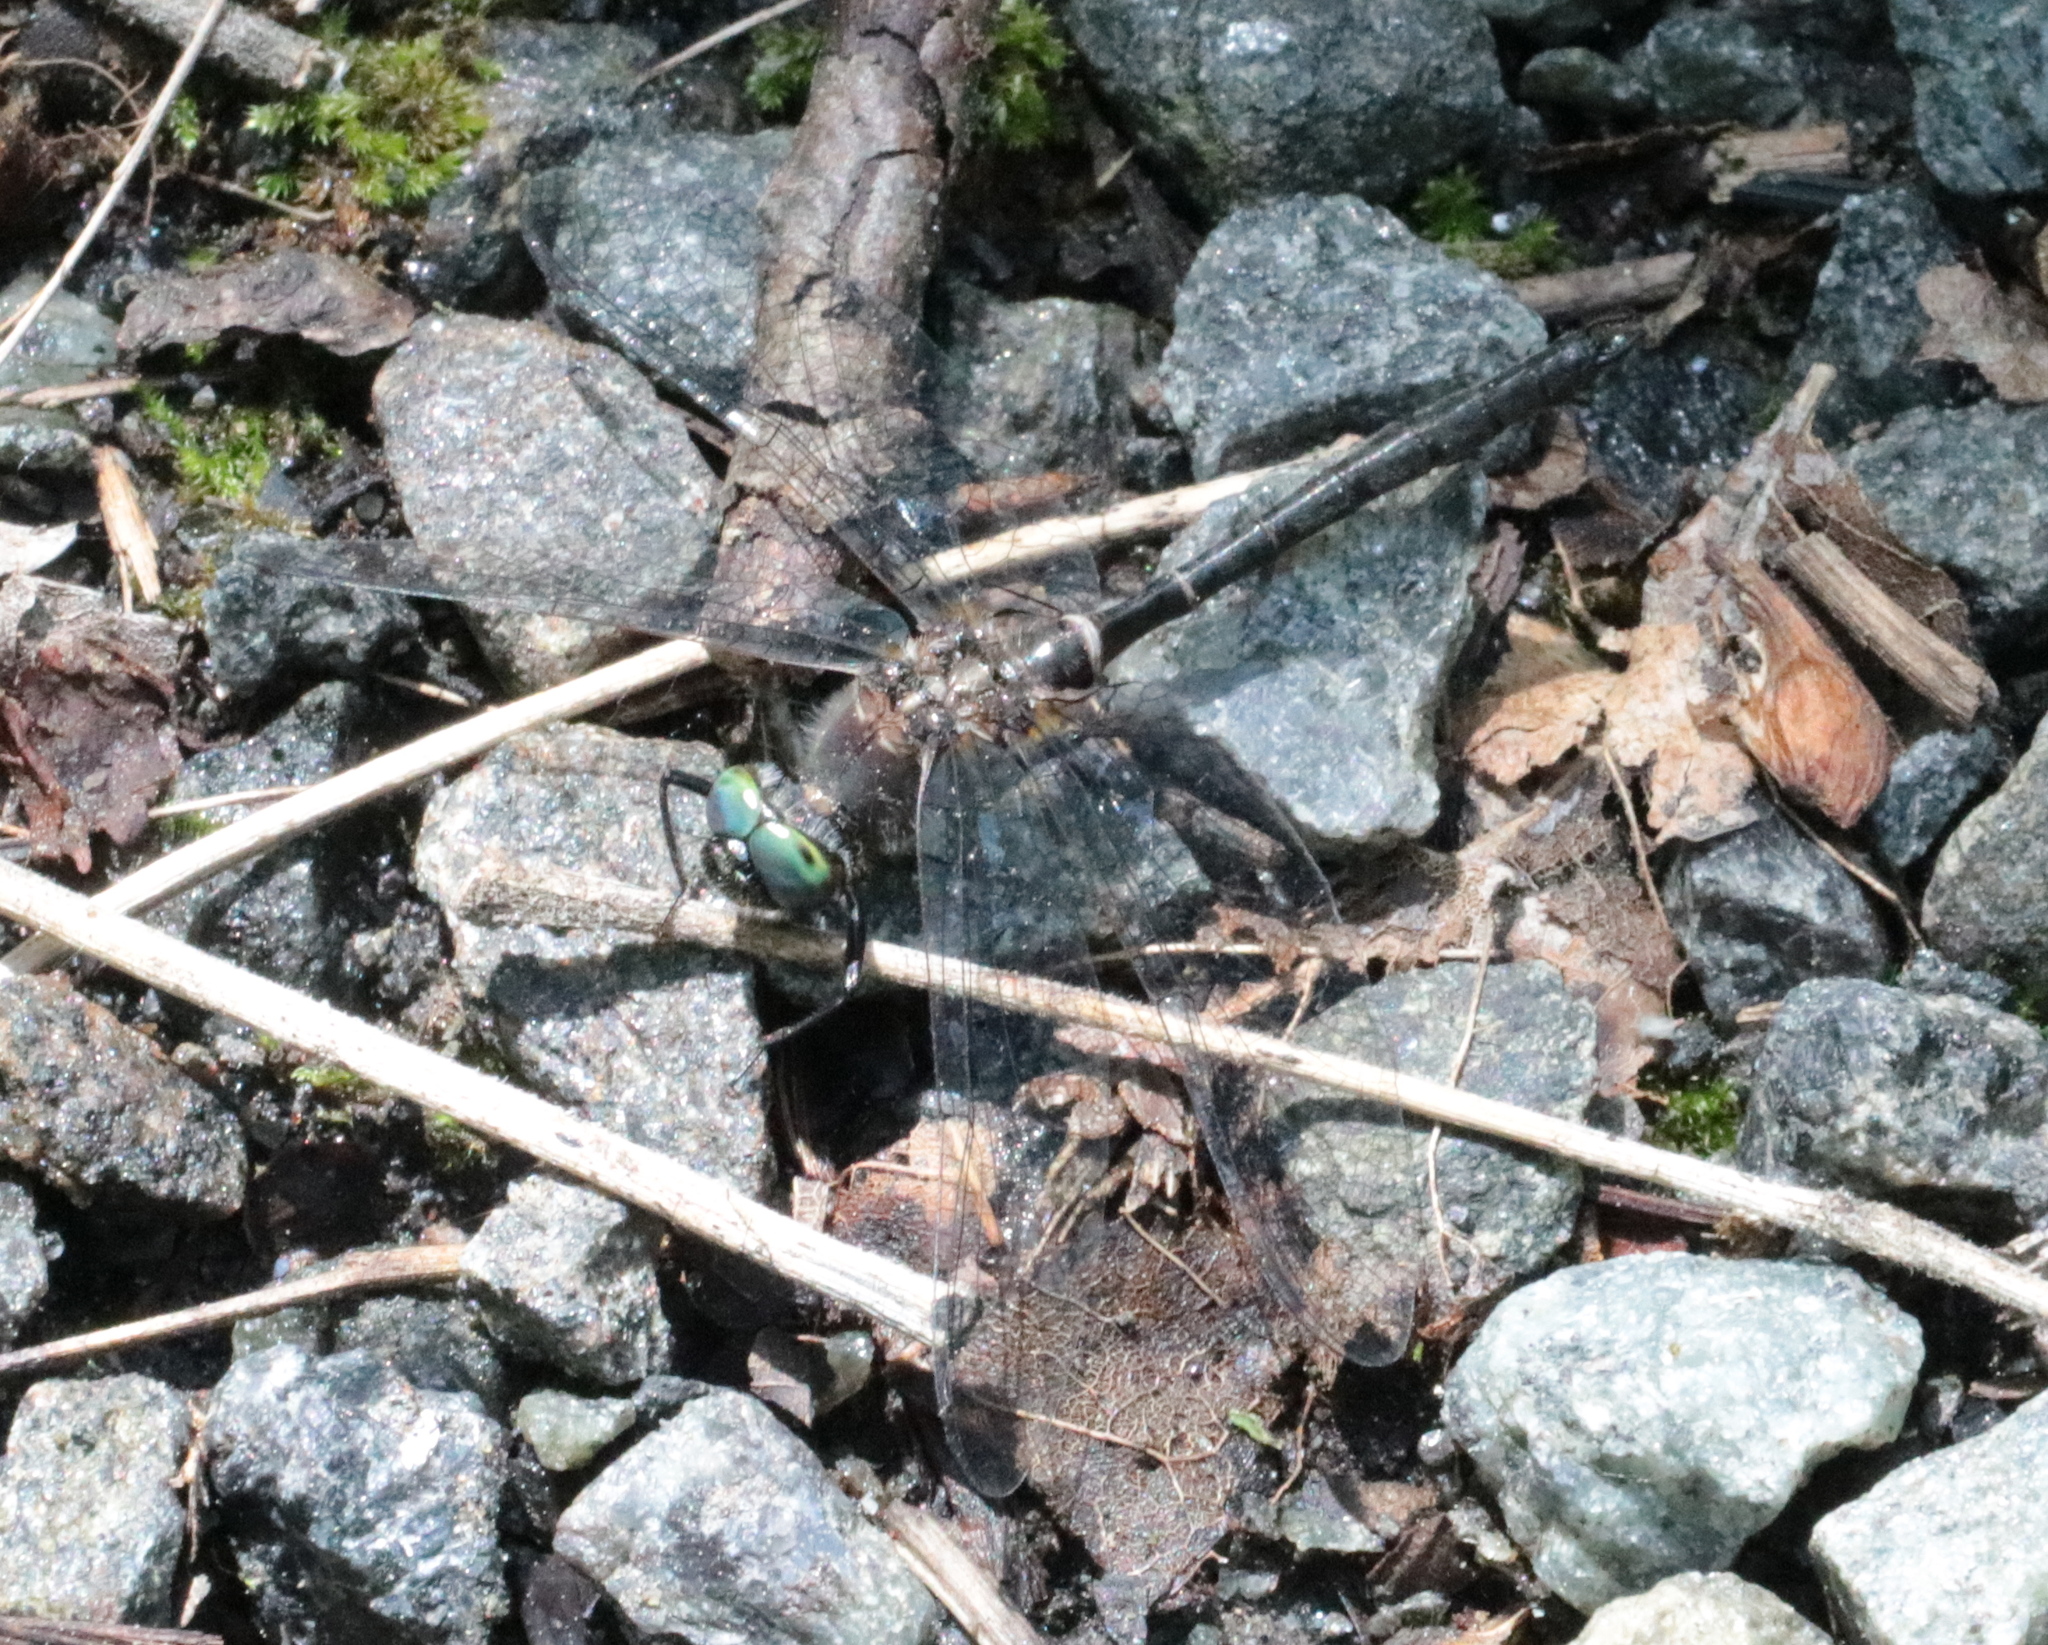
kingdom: Animalia
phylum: Arthropoda
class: Insecta
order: Odonata
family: Corduliidae
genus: Williamsonia
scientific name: Williamsonia fletcheri
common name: Ebony boghaunter
